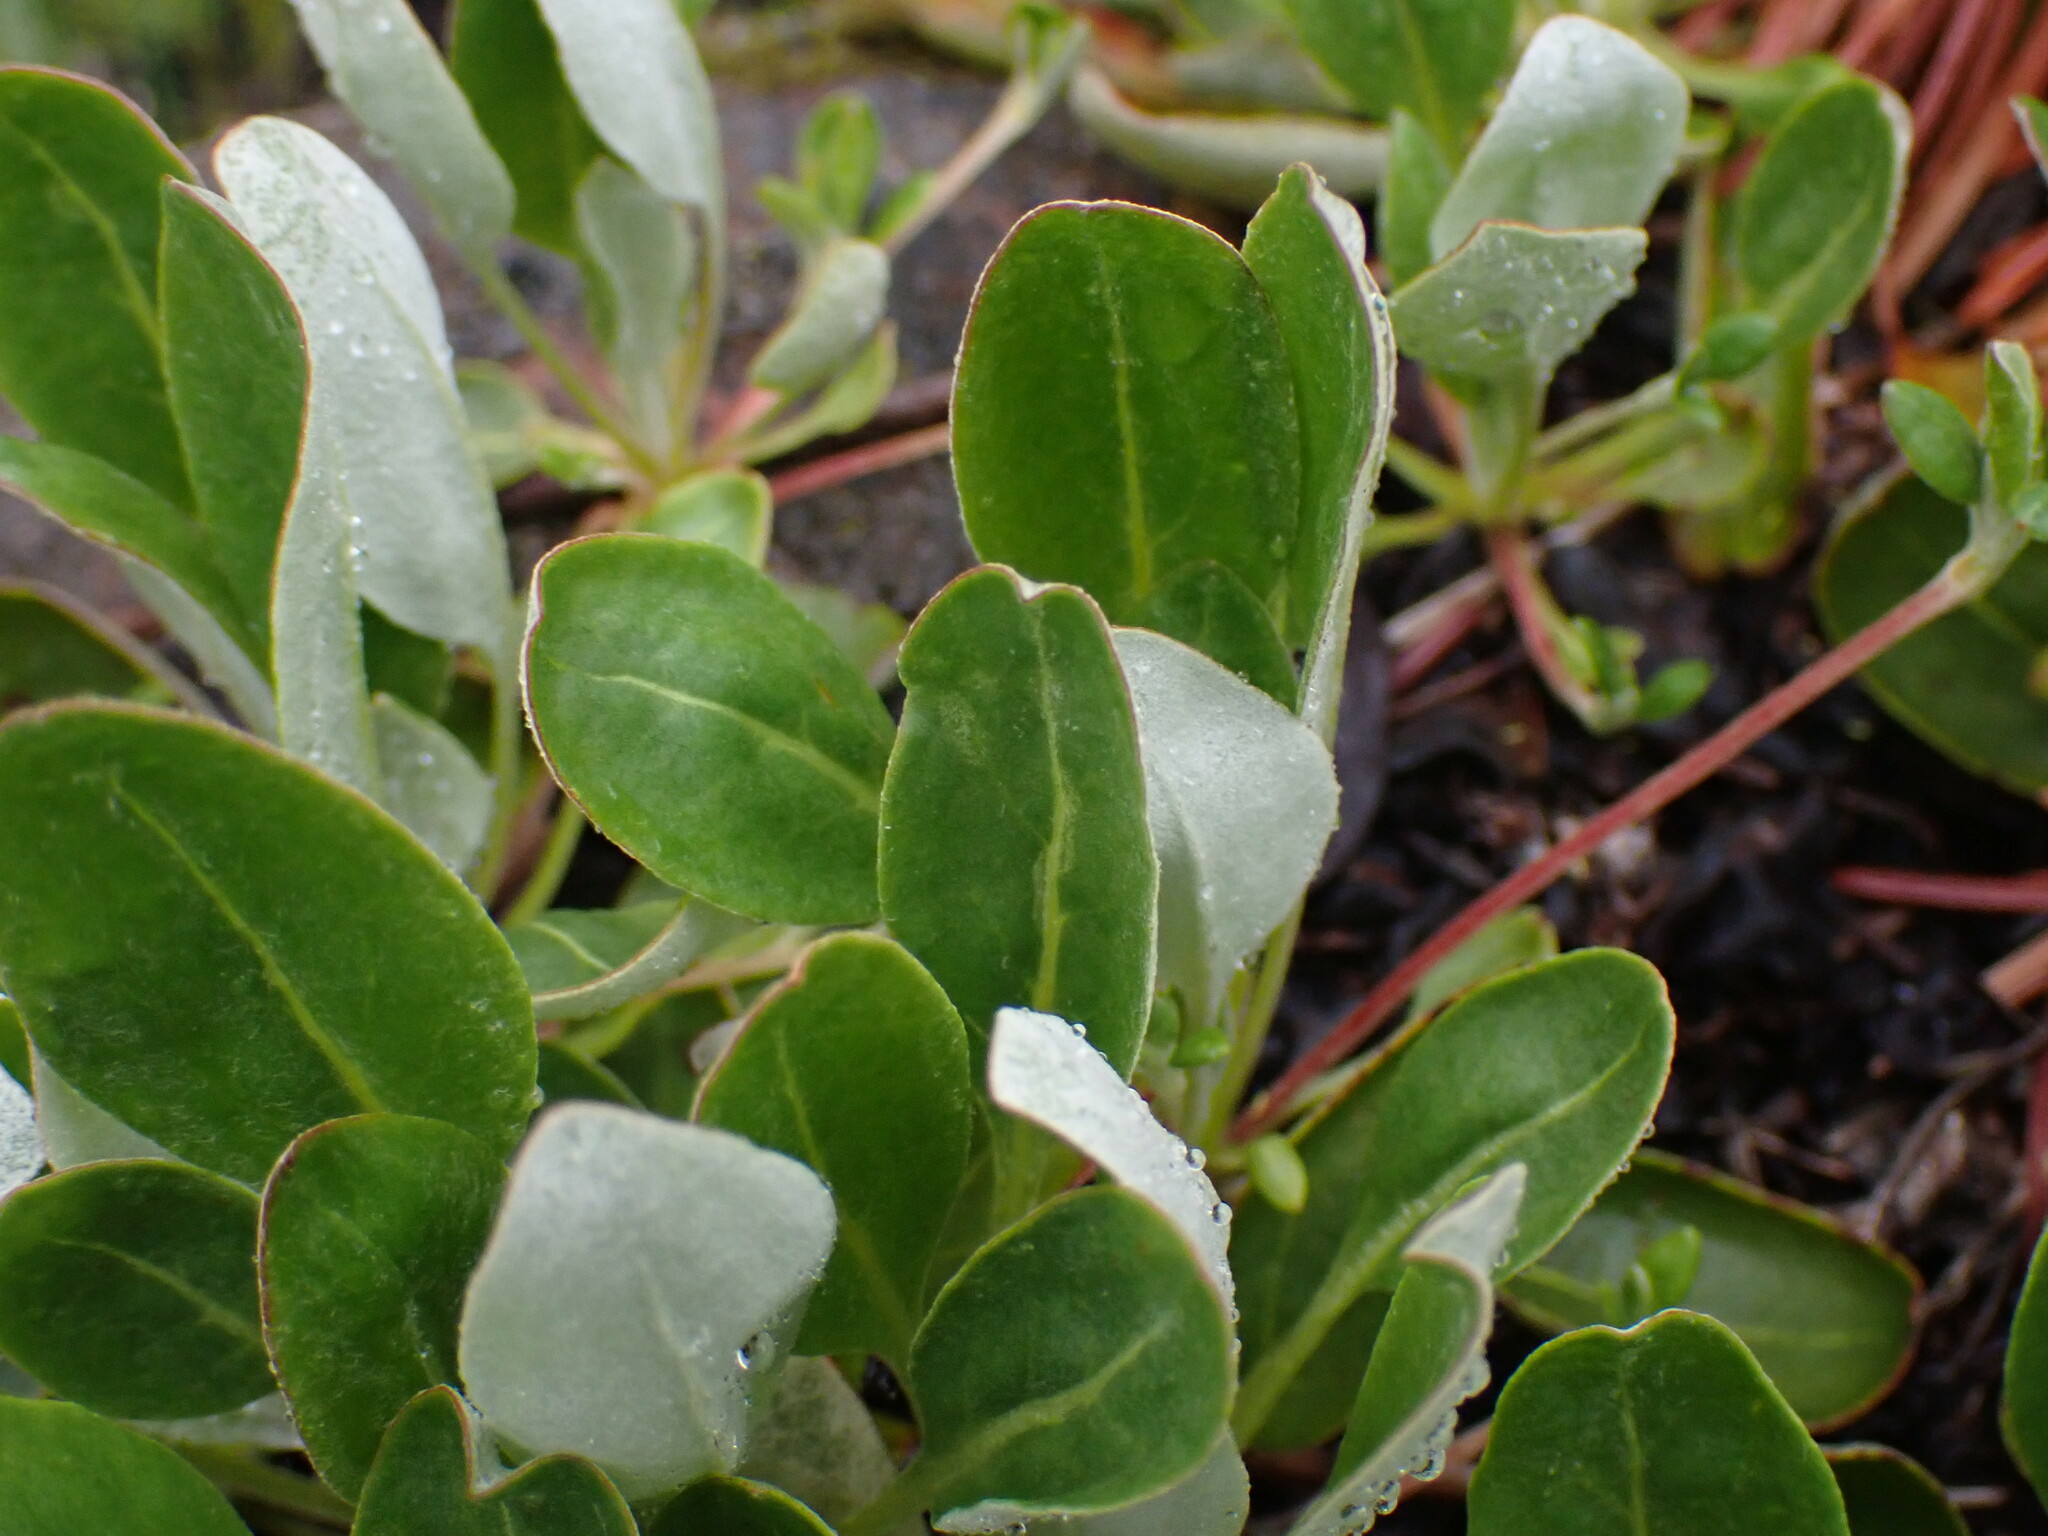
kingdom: Plantae
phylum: Tracheophyta
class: Magnoliopsida
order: Caryophyllales
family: Polygonaceae
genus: Eriogonum
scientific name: Eriogonum umbellatum
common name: Sulfur-buckwheat
